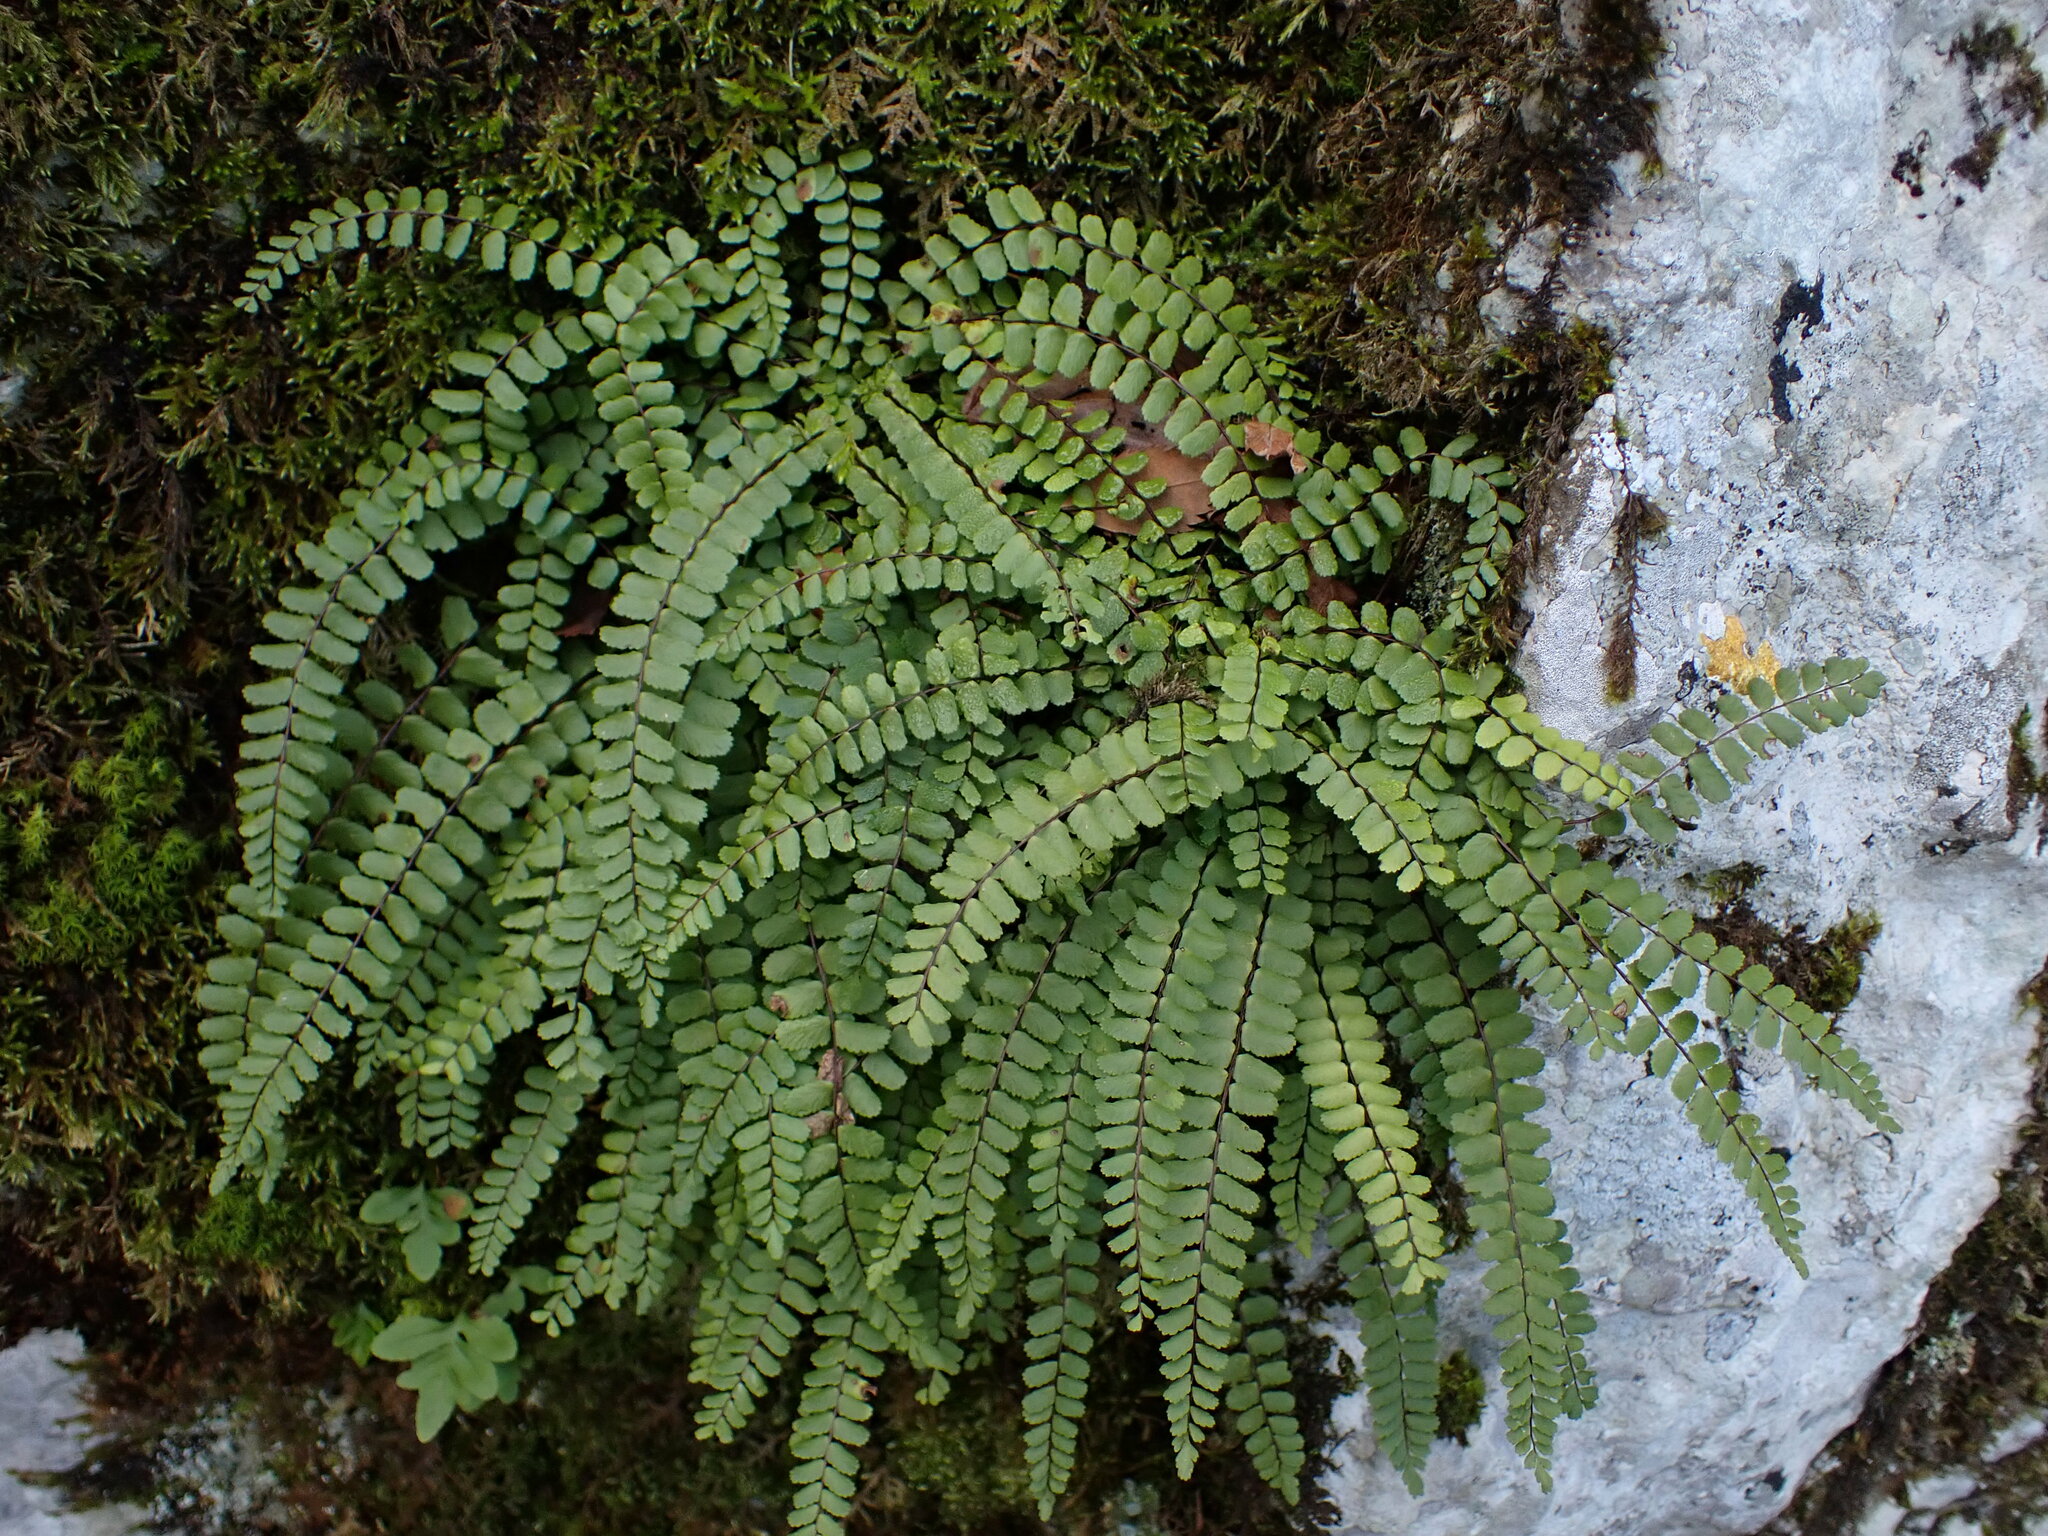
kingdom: Plantae
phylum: Tracheophyta
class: Polypodiopsida
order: Polypodiales
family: Aspleniaceae
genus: Asplenium
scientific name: Asplenium trichomanes
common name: Maidenhair spleenwort
